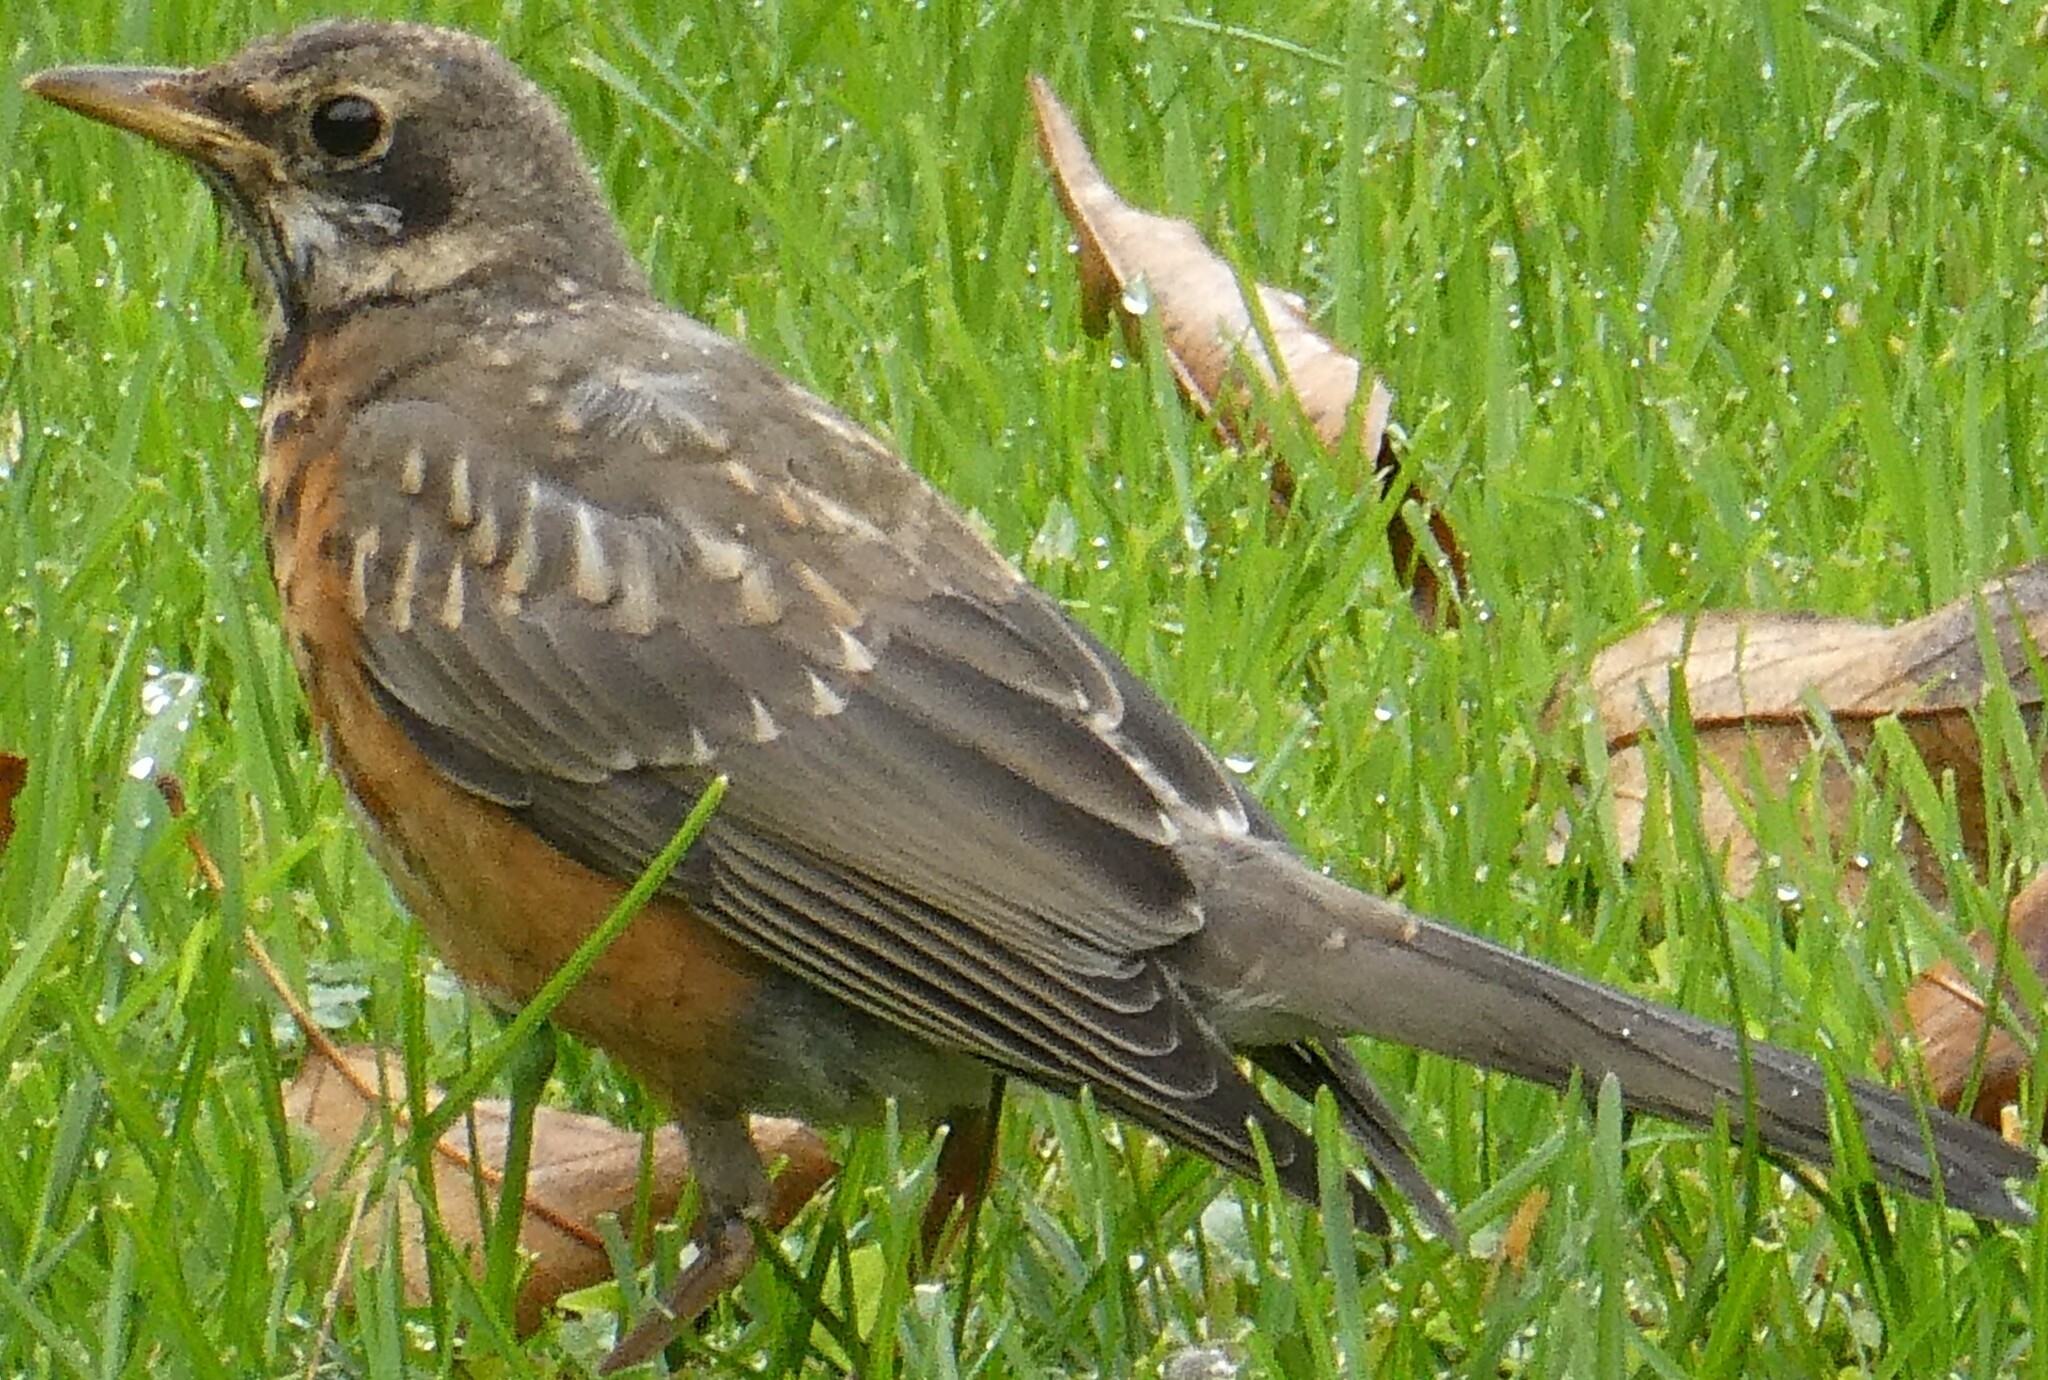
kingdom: Animalia
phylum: Chordata
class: Aves
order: Passeriformes
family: Turdidae
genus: Turdus
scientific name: Turdus migratorius
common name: American robin
